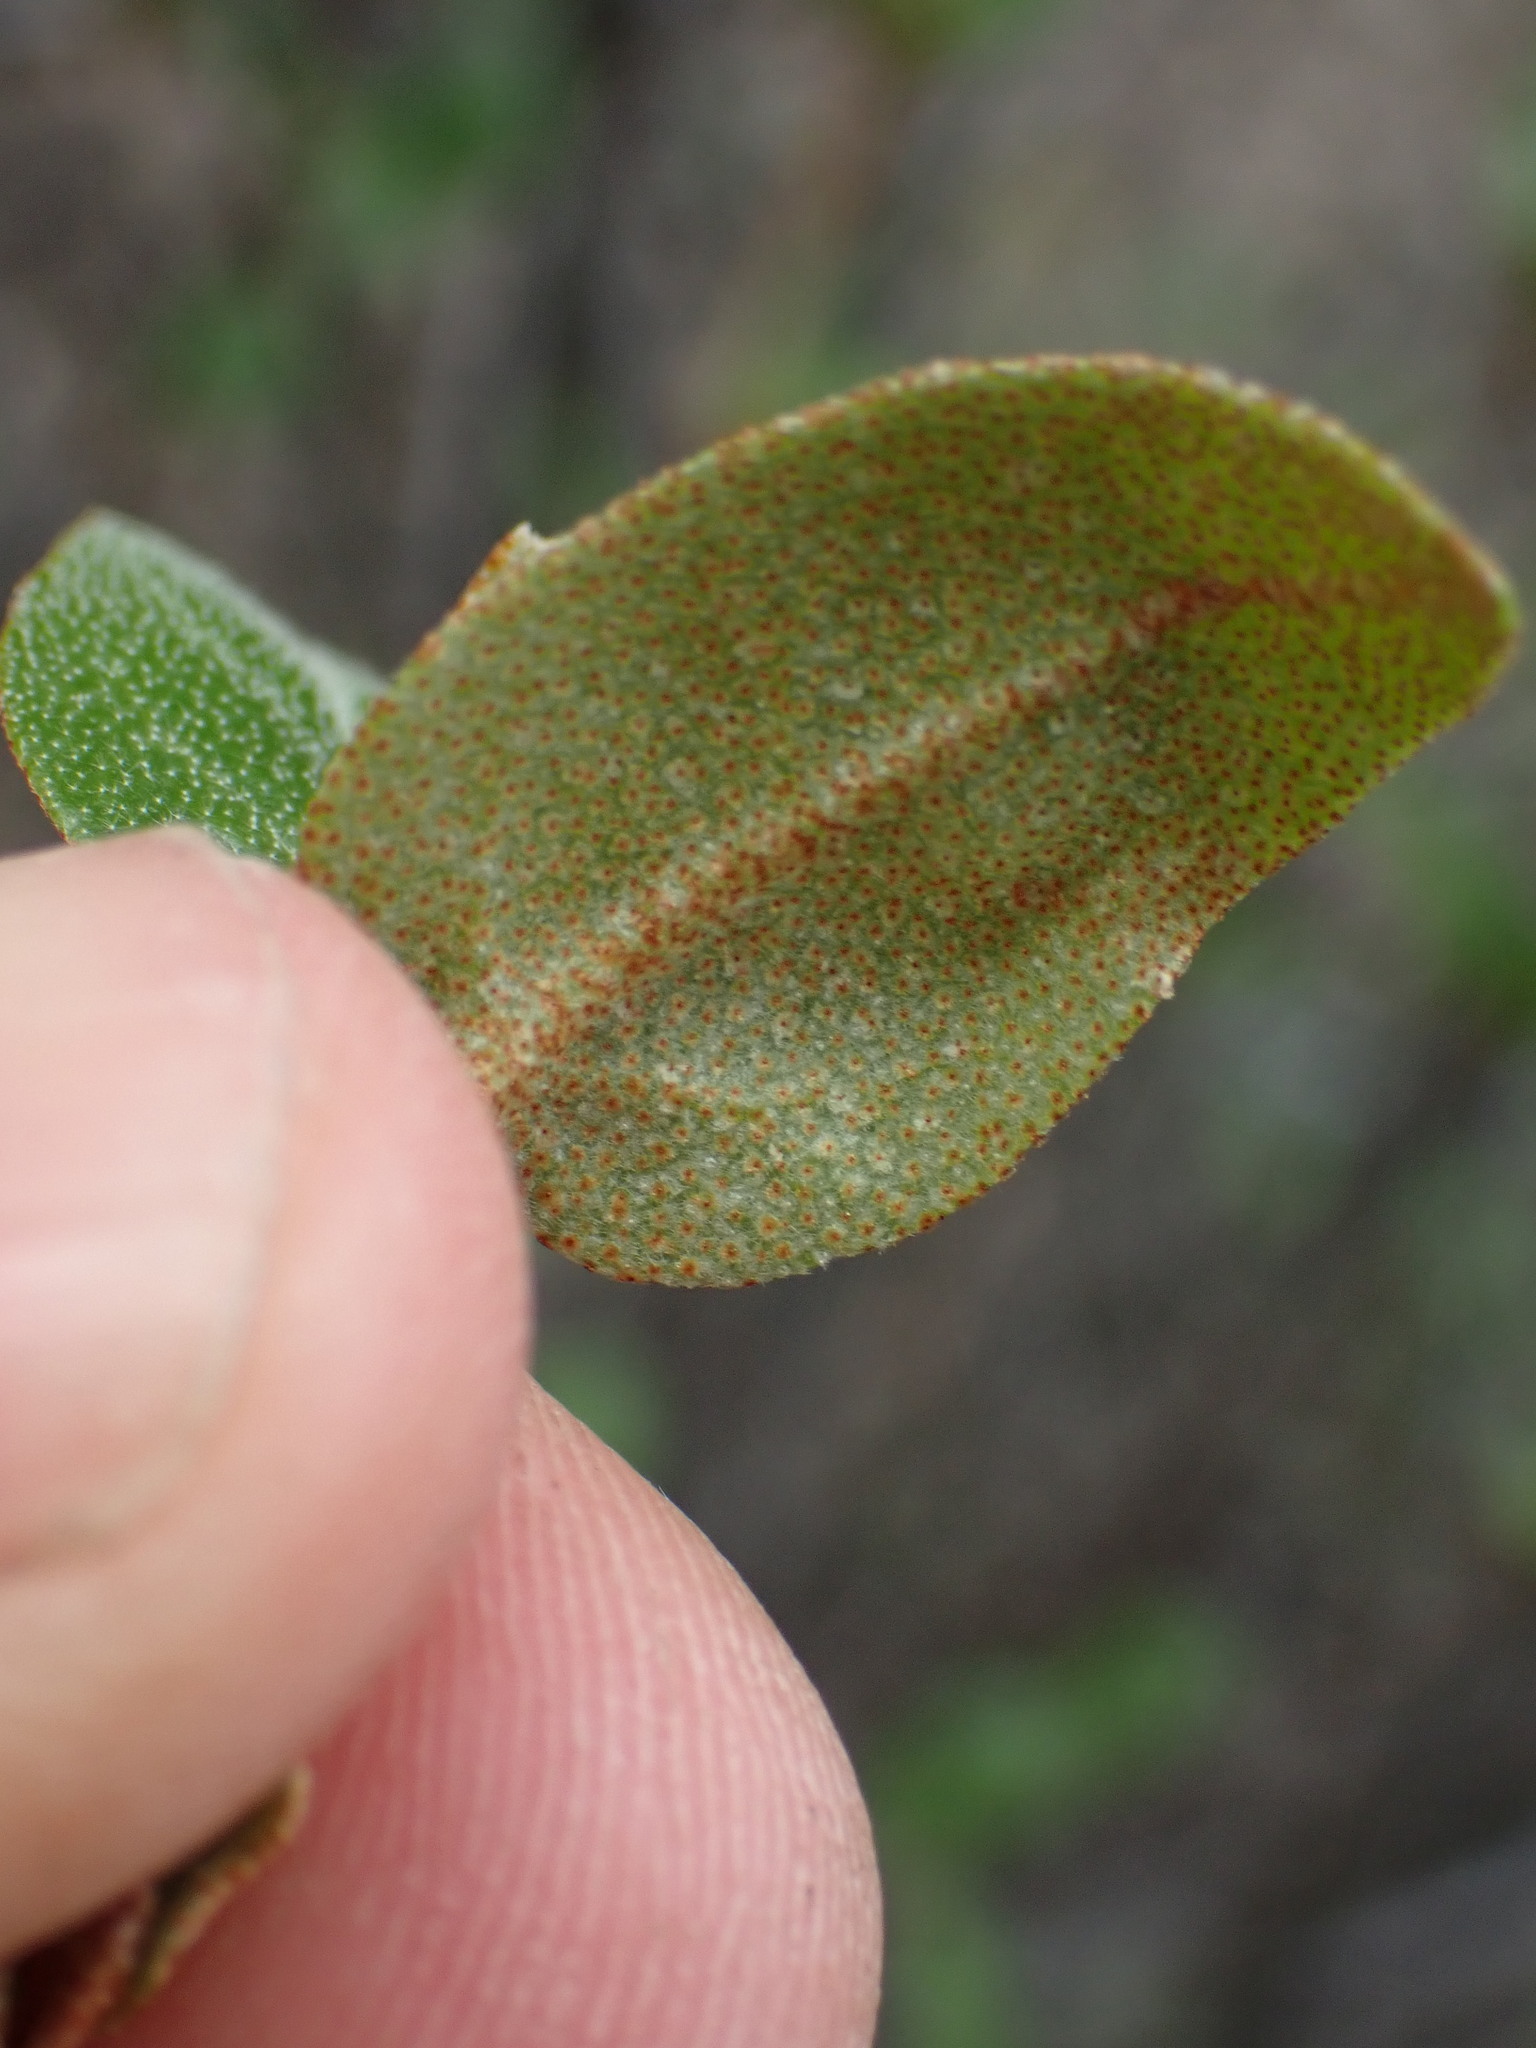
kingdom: Plantae
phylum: Tracheophyta
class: Magnoliopsida
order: Rosales
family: Elaeagnaceae
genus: Shepherdia
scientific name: Shepherdia canadensis
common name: Soapberry
